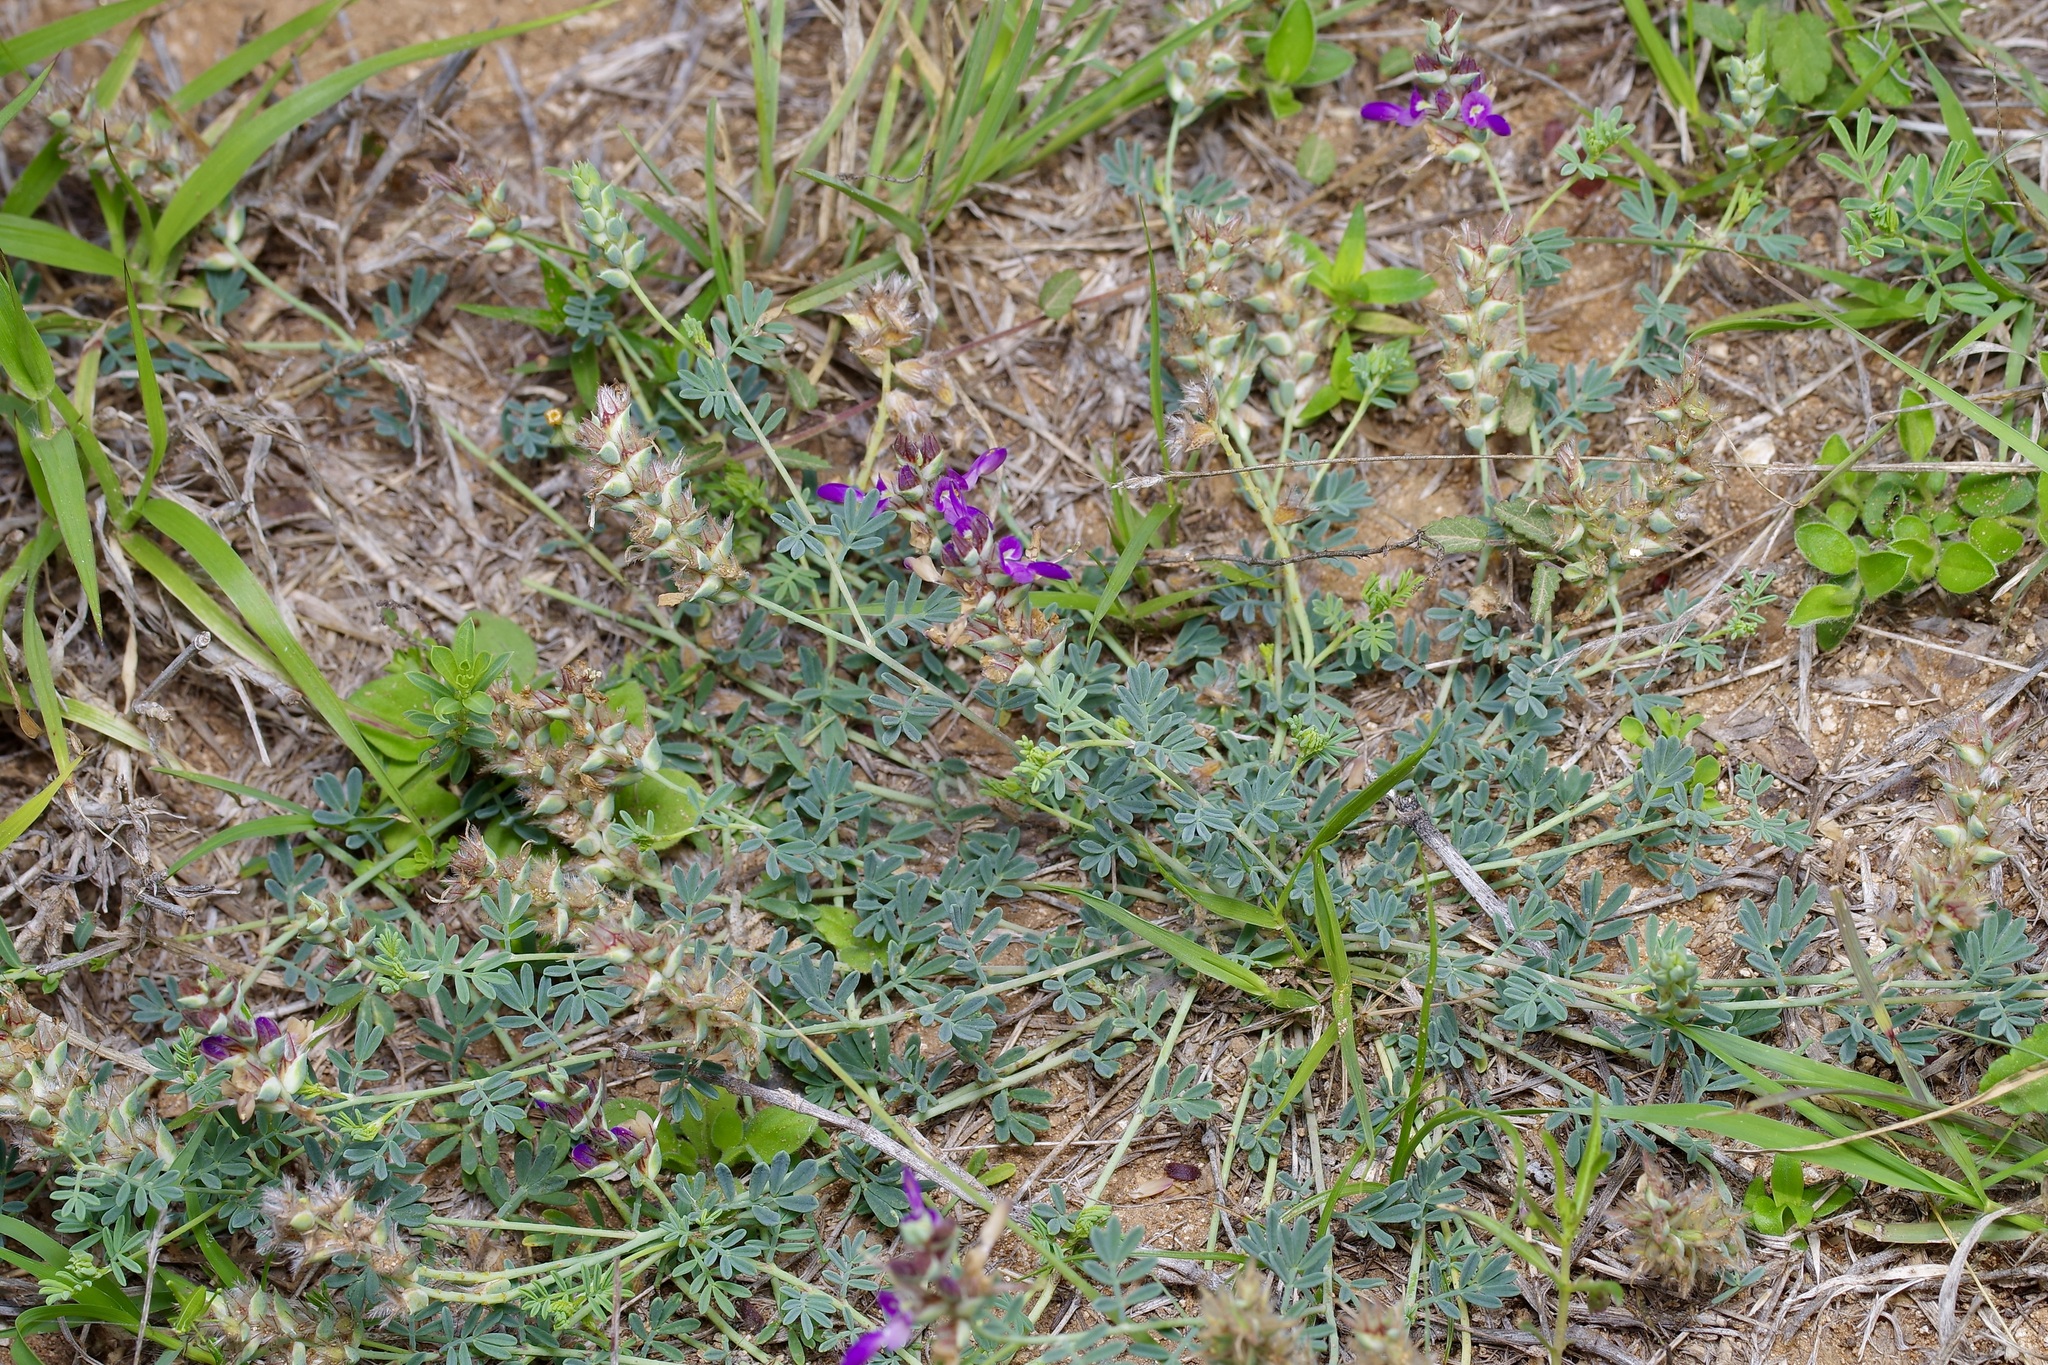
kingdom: Plantae
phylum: Tracheophyta
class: Magnoliopsida
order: Fabales
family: Fabaceae
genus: Dalea
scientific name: Dalea pogonathera
